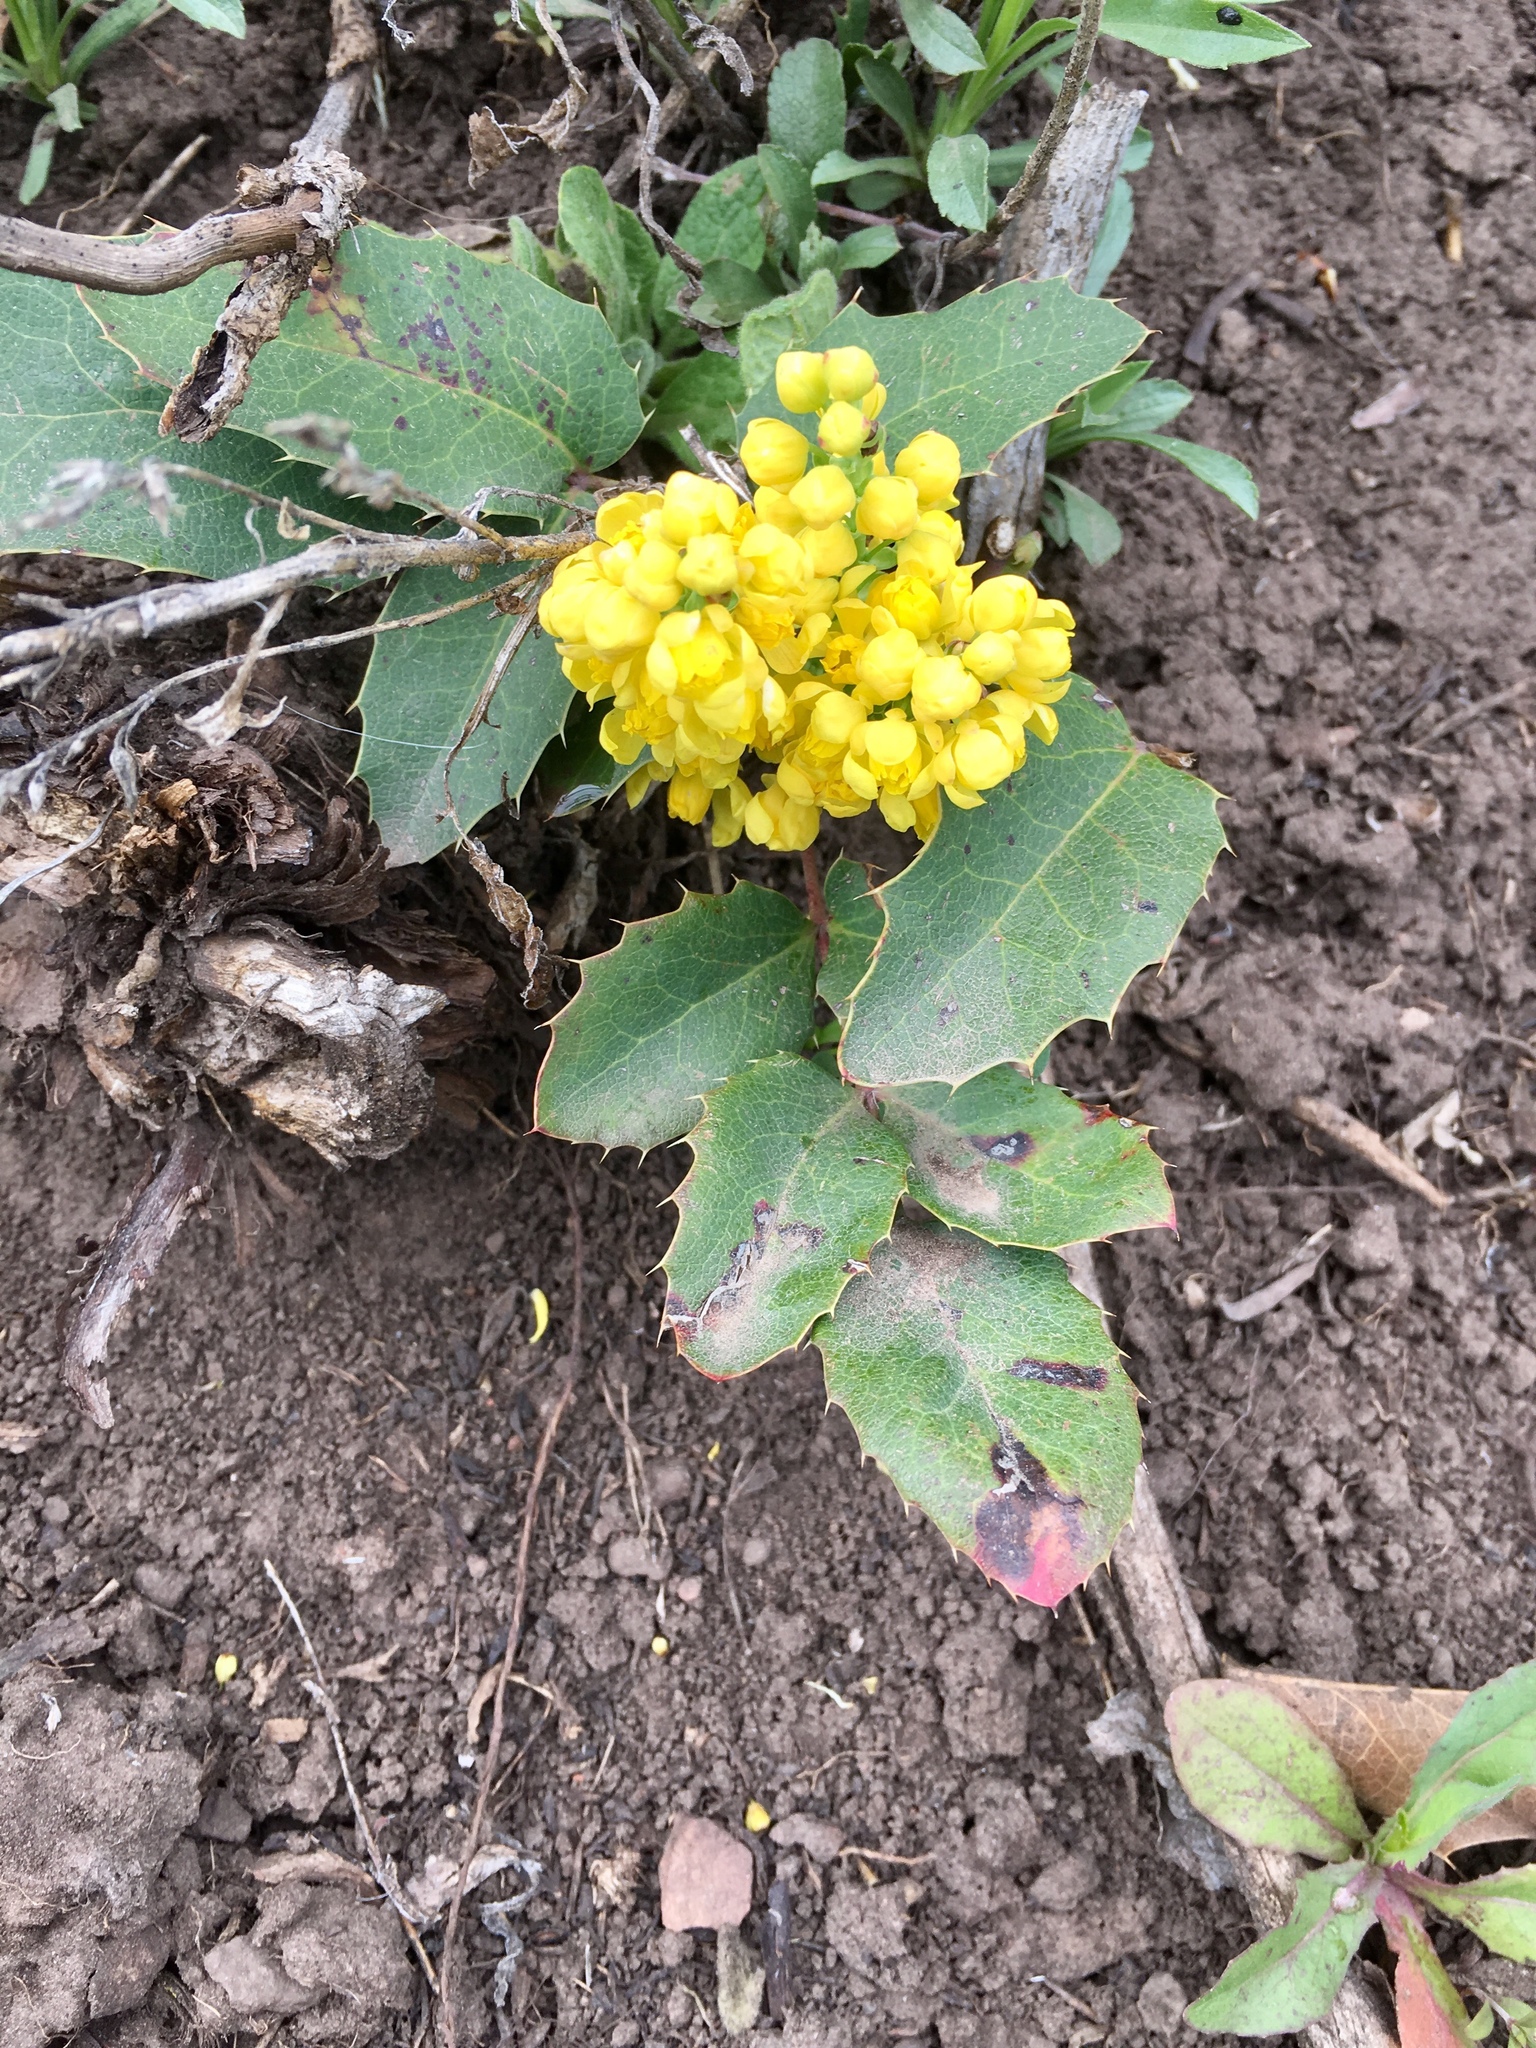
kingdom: Plantae
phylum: Tracheophyta
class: Magnoliopsida
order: Ranunculales
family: Berberidaceae
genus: Mahonia
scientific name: Mahonia repens
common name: Creeping oregon-grape
